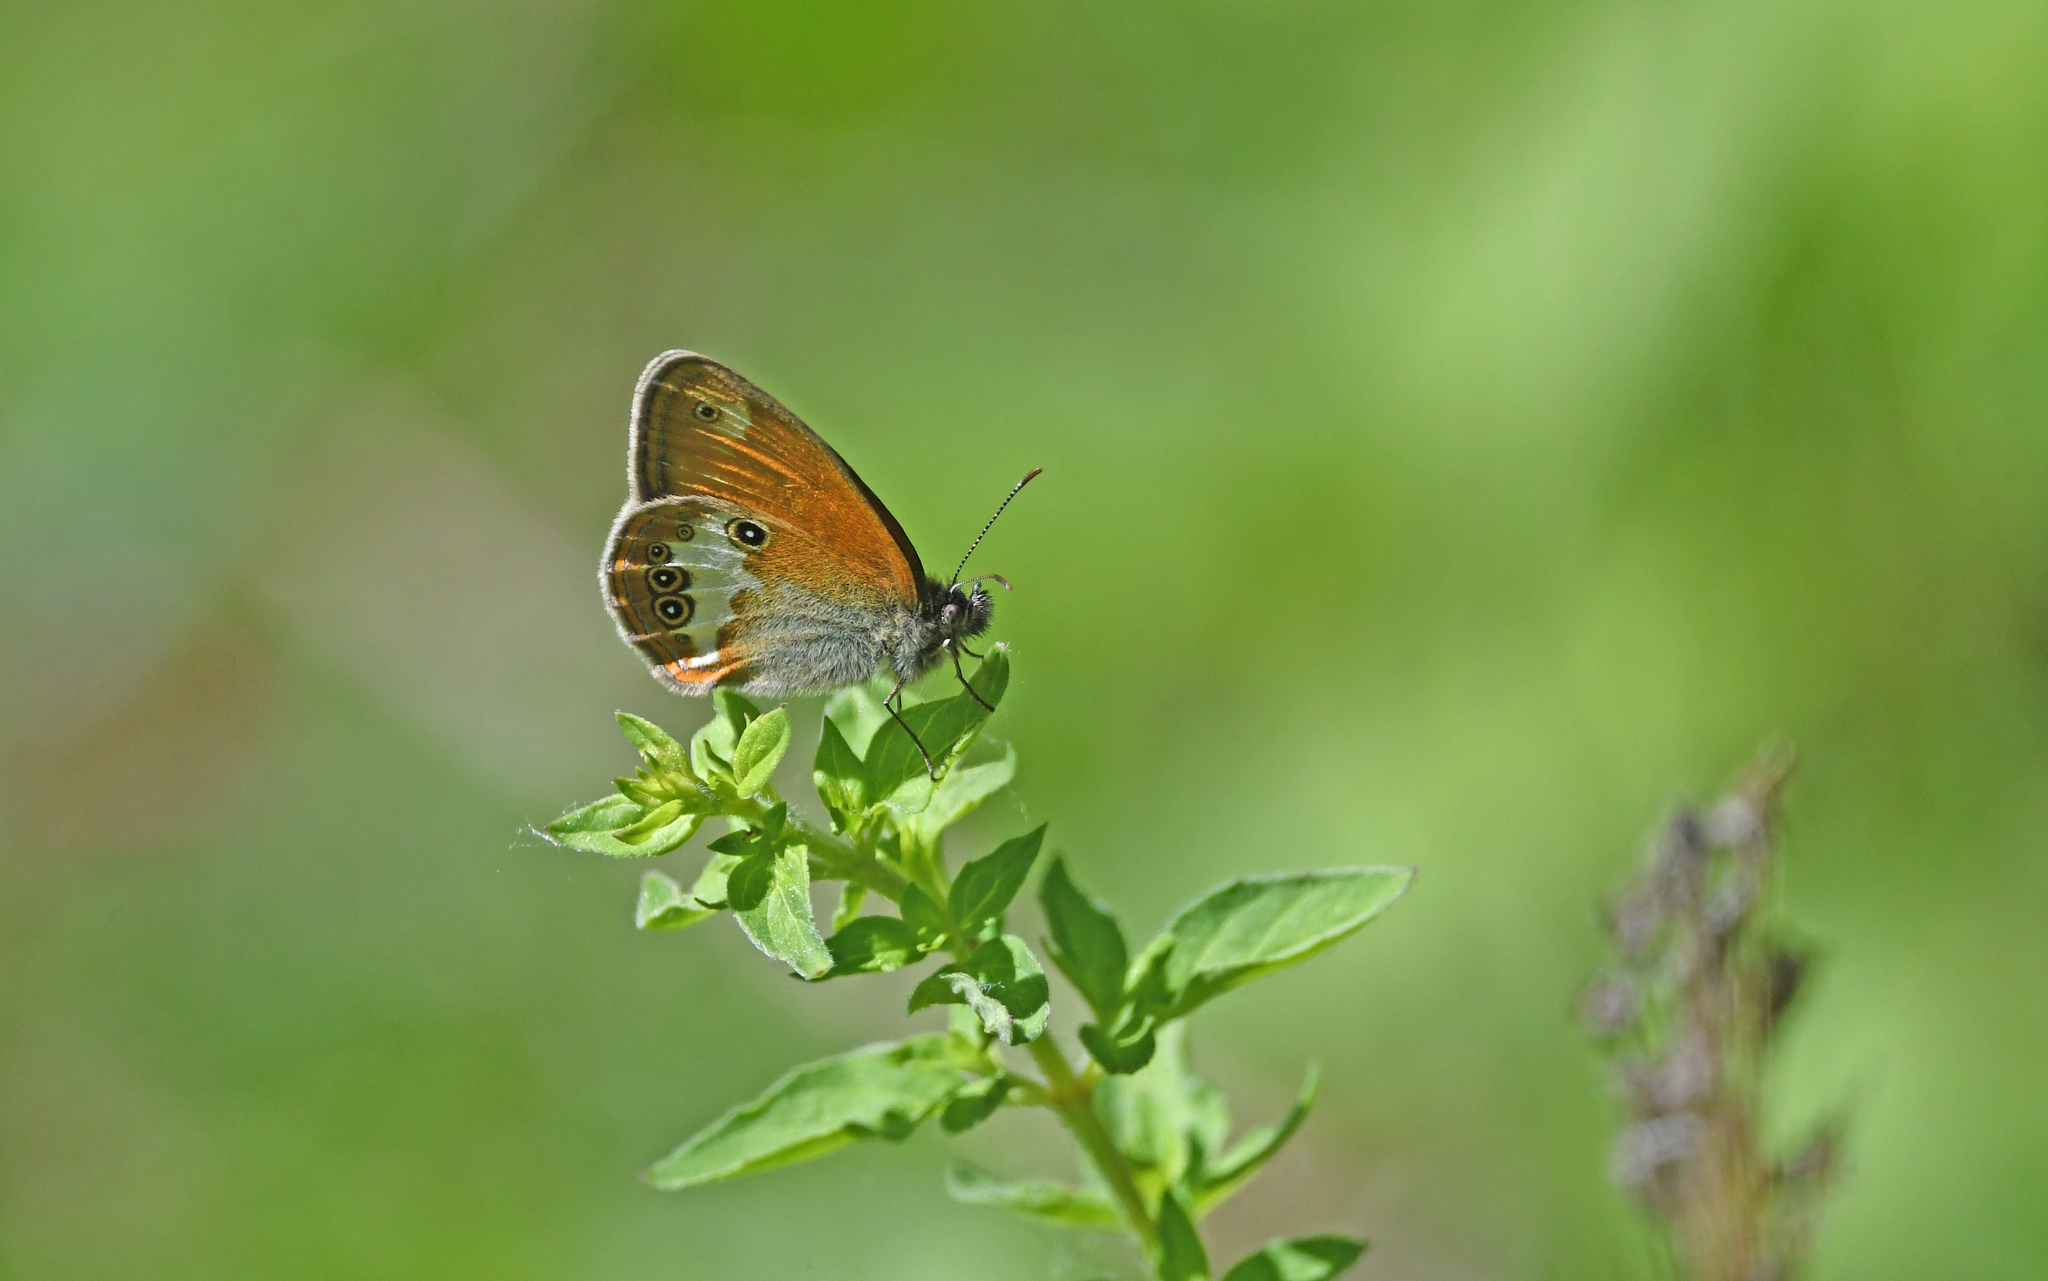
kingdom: Animalia
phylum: Arthropoda
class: Insecta
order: Lepidoptera
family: Nymphalidae
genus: Coenonympha
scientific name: Coenonympha arcania
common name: Pearly heath
